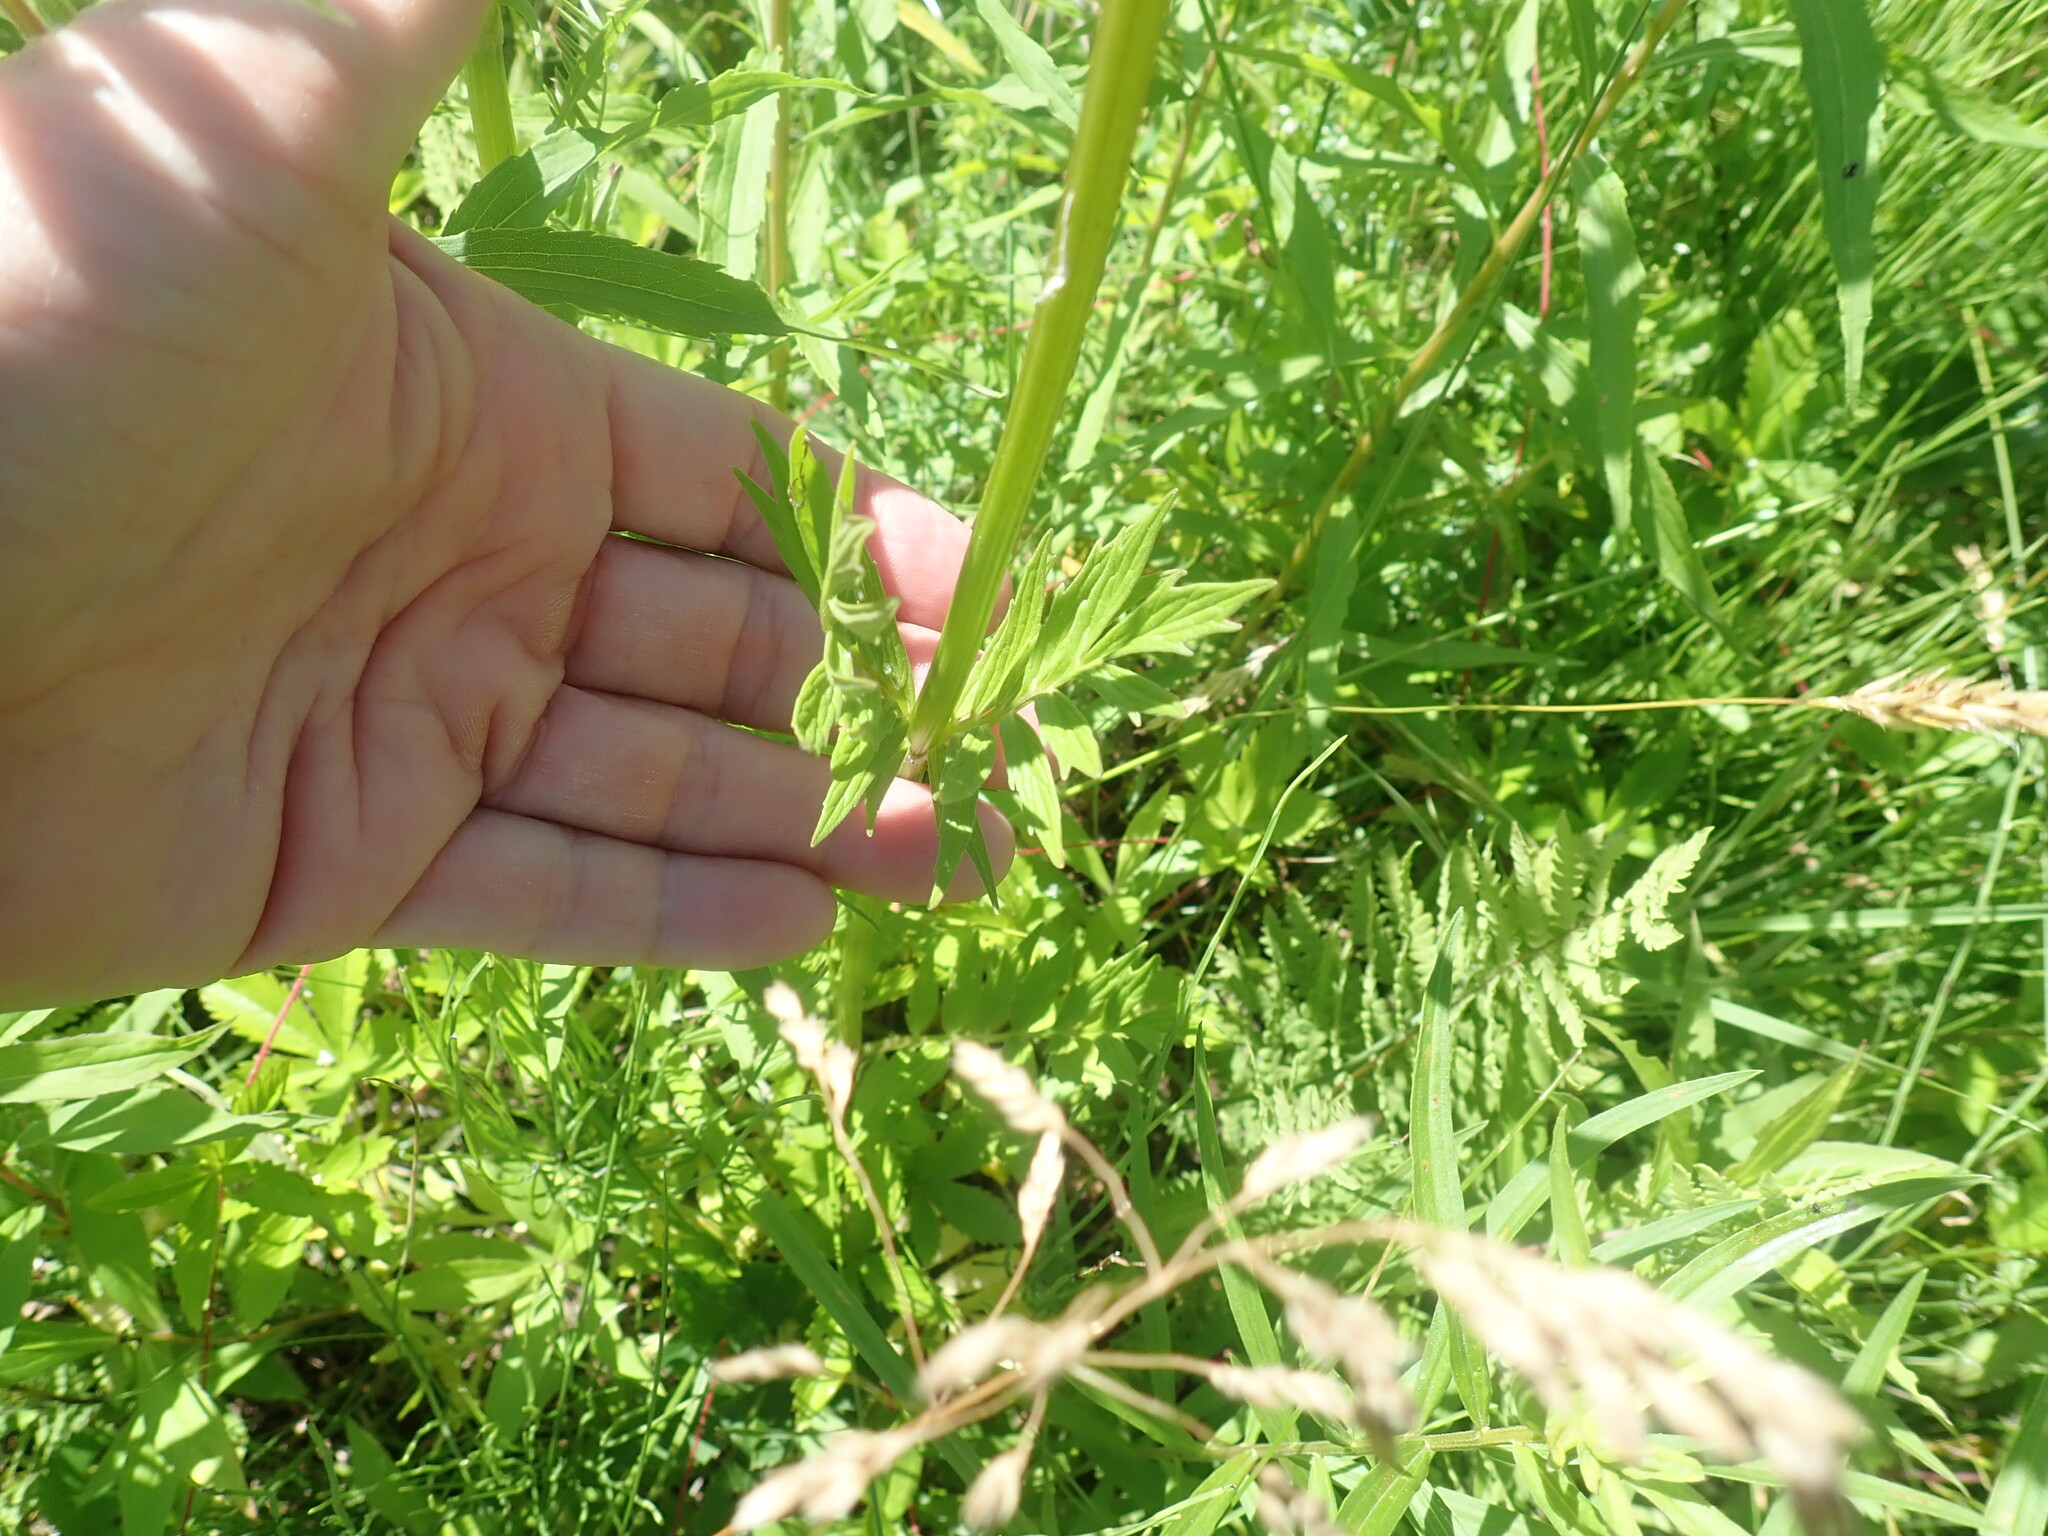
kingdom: Plantae
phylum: Tracheophyta
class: Magnoliopsida
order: Dipsacales
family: Caprifoliaceae
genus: Valeriana
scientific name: Valeriana officinalis
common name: Common valerian
